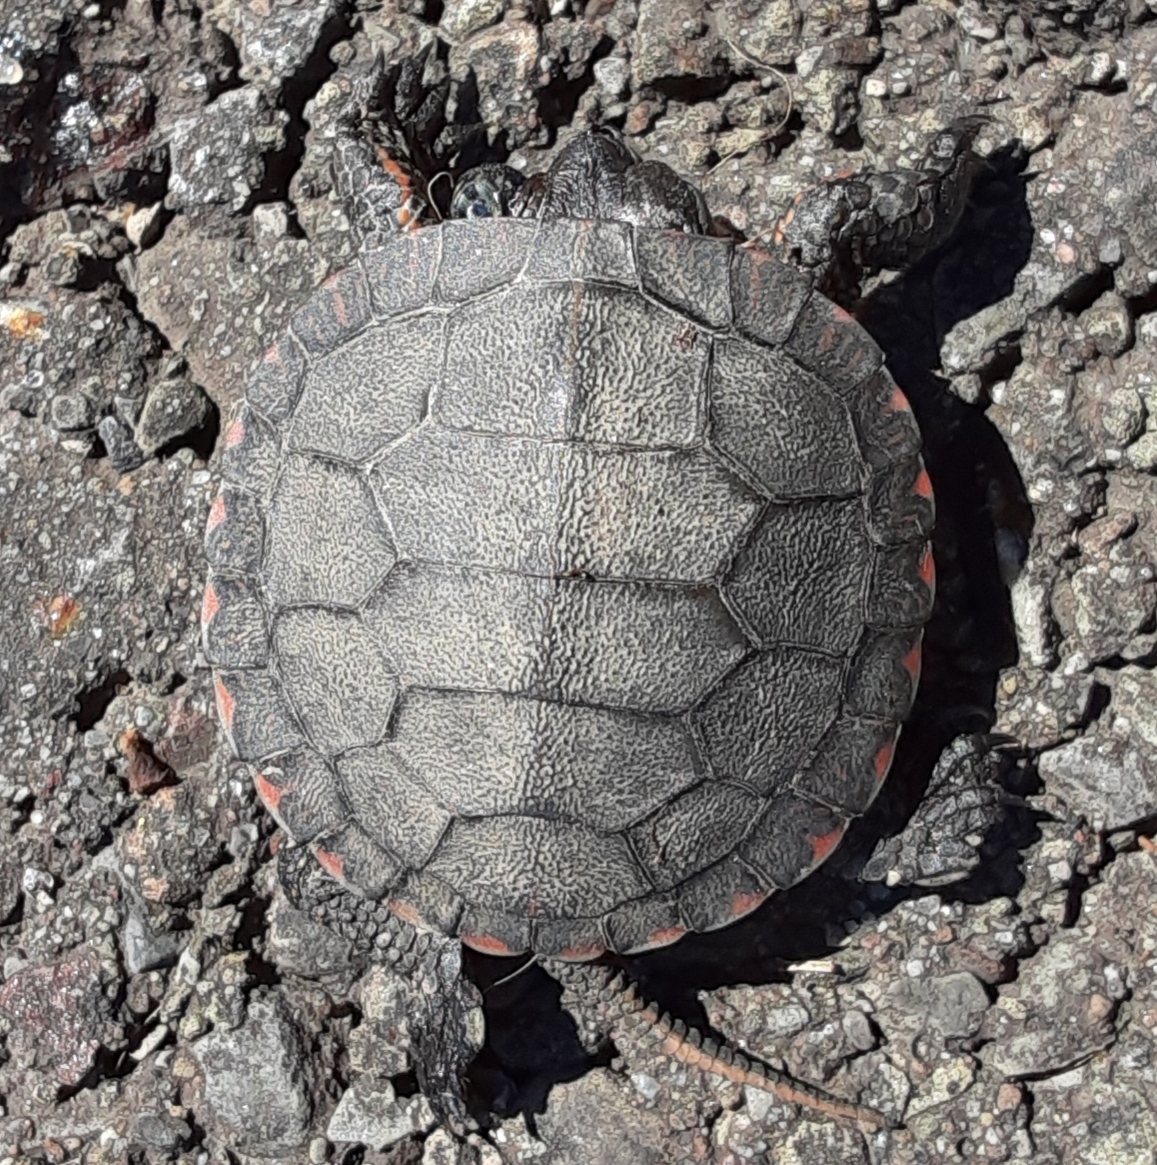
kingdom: Animalia
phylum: Chordata
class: Testudines
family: Emydidae
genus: Chrysemys
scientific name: Chrysemys picta
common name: Painted turtle
